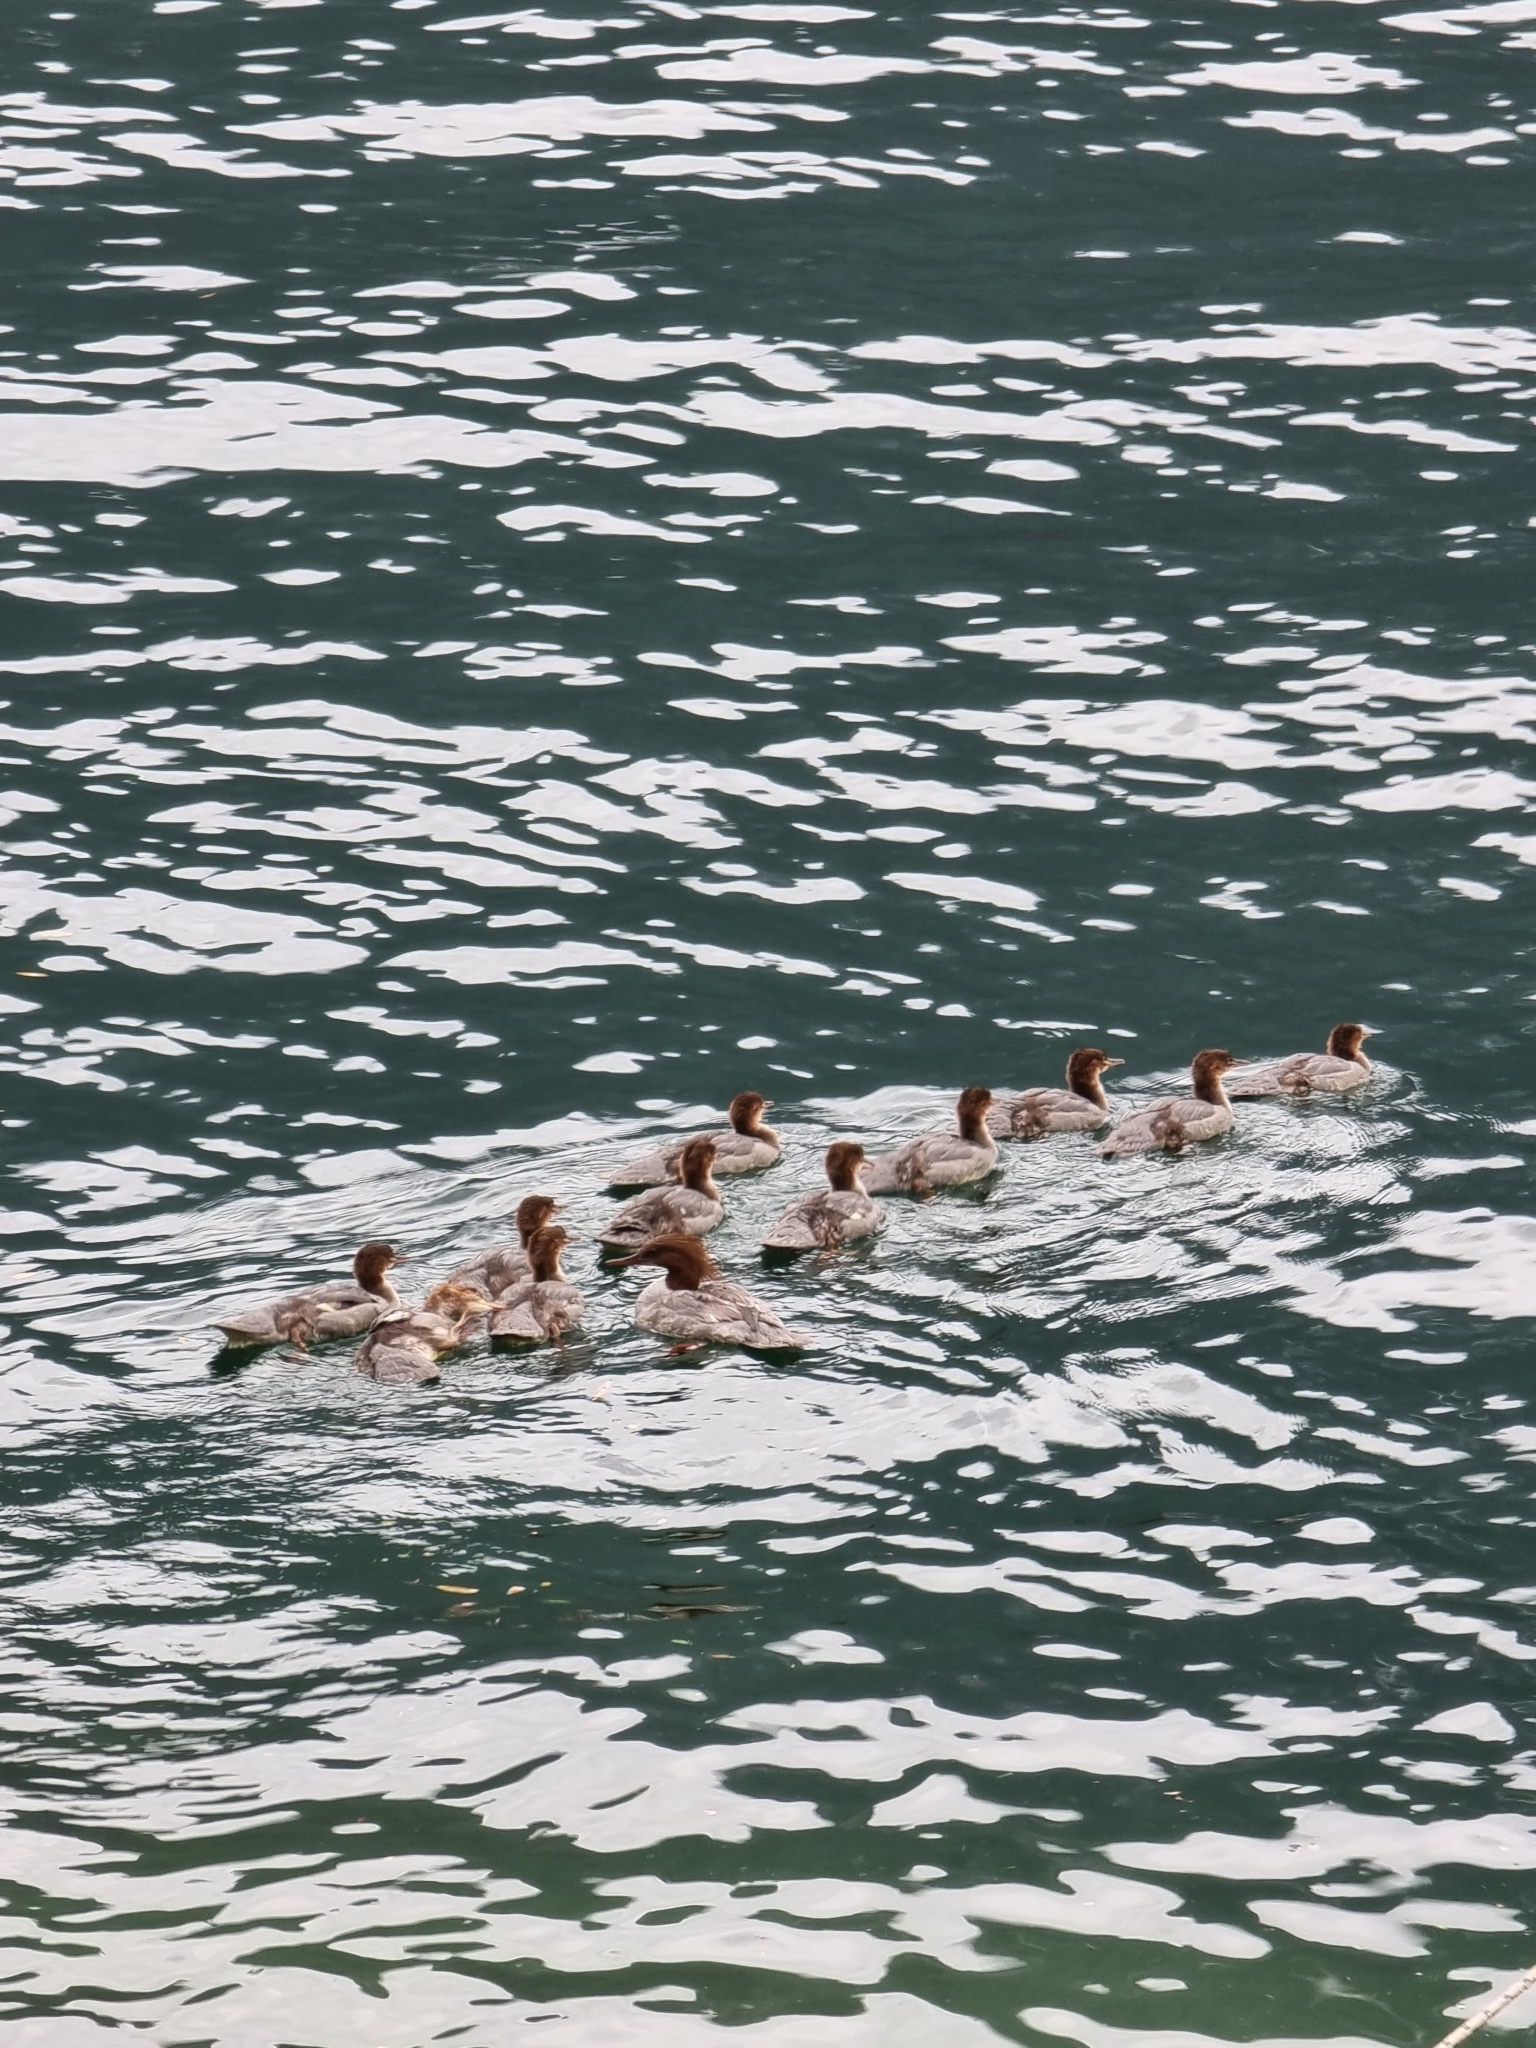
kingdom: Animalia
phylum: Chordata
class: Aves
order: Anseriformes
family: Anatidae
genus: Mergus
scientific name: Mergus merganser
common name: Common merganser
